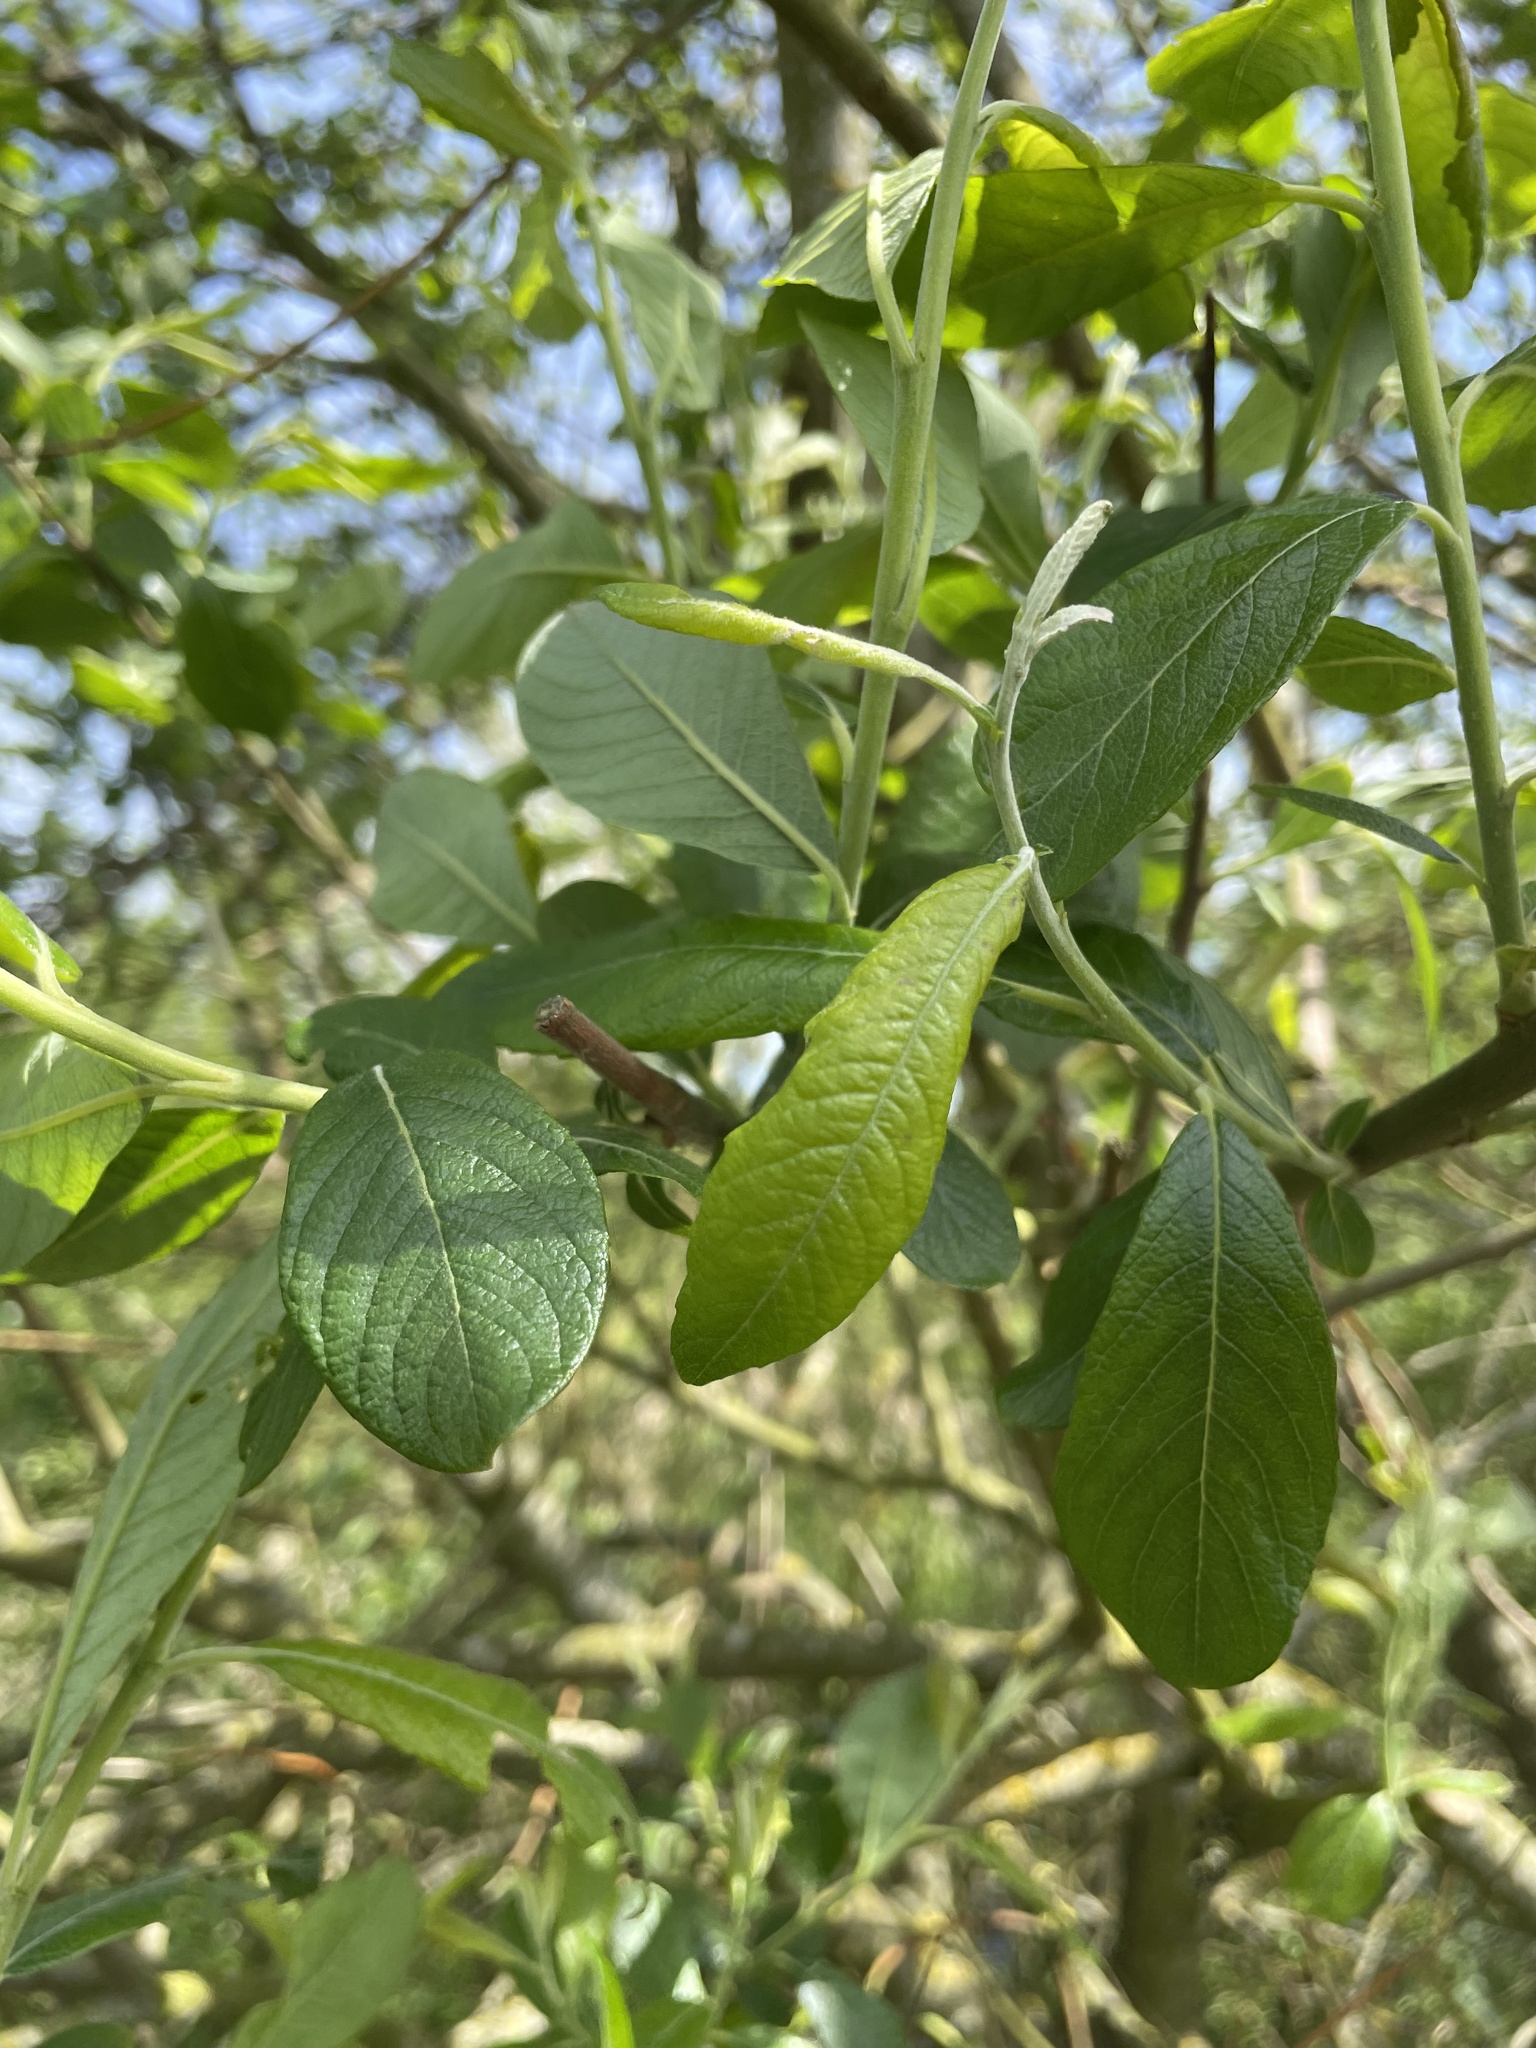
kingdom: Plantae
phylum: Tracheophyta
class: Magnoliopsida
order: Malpighiales
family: Salicaceae
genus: Salix
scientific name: Salix cinerea
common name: Common sallow
